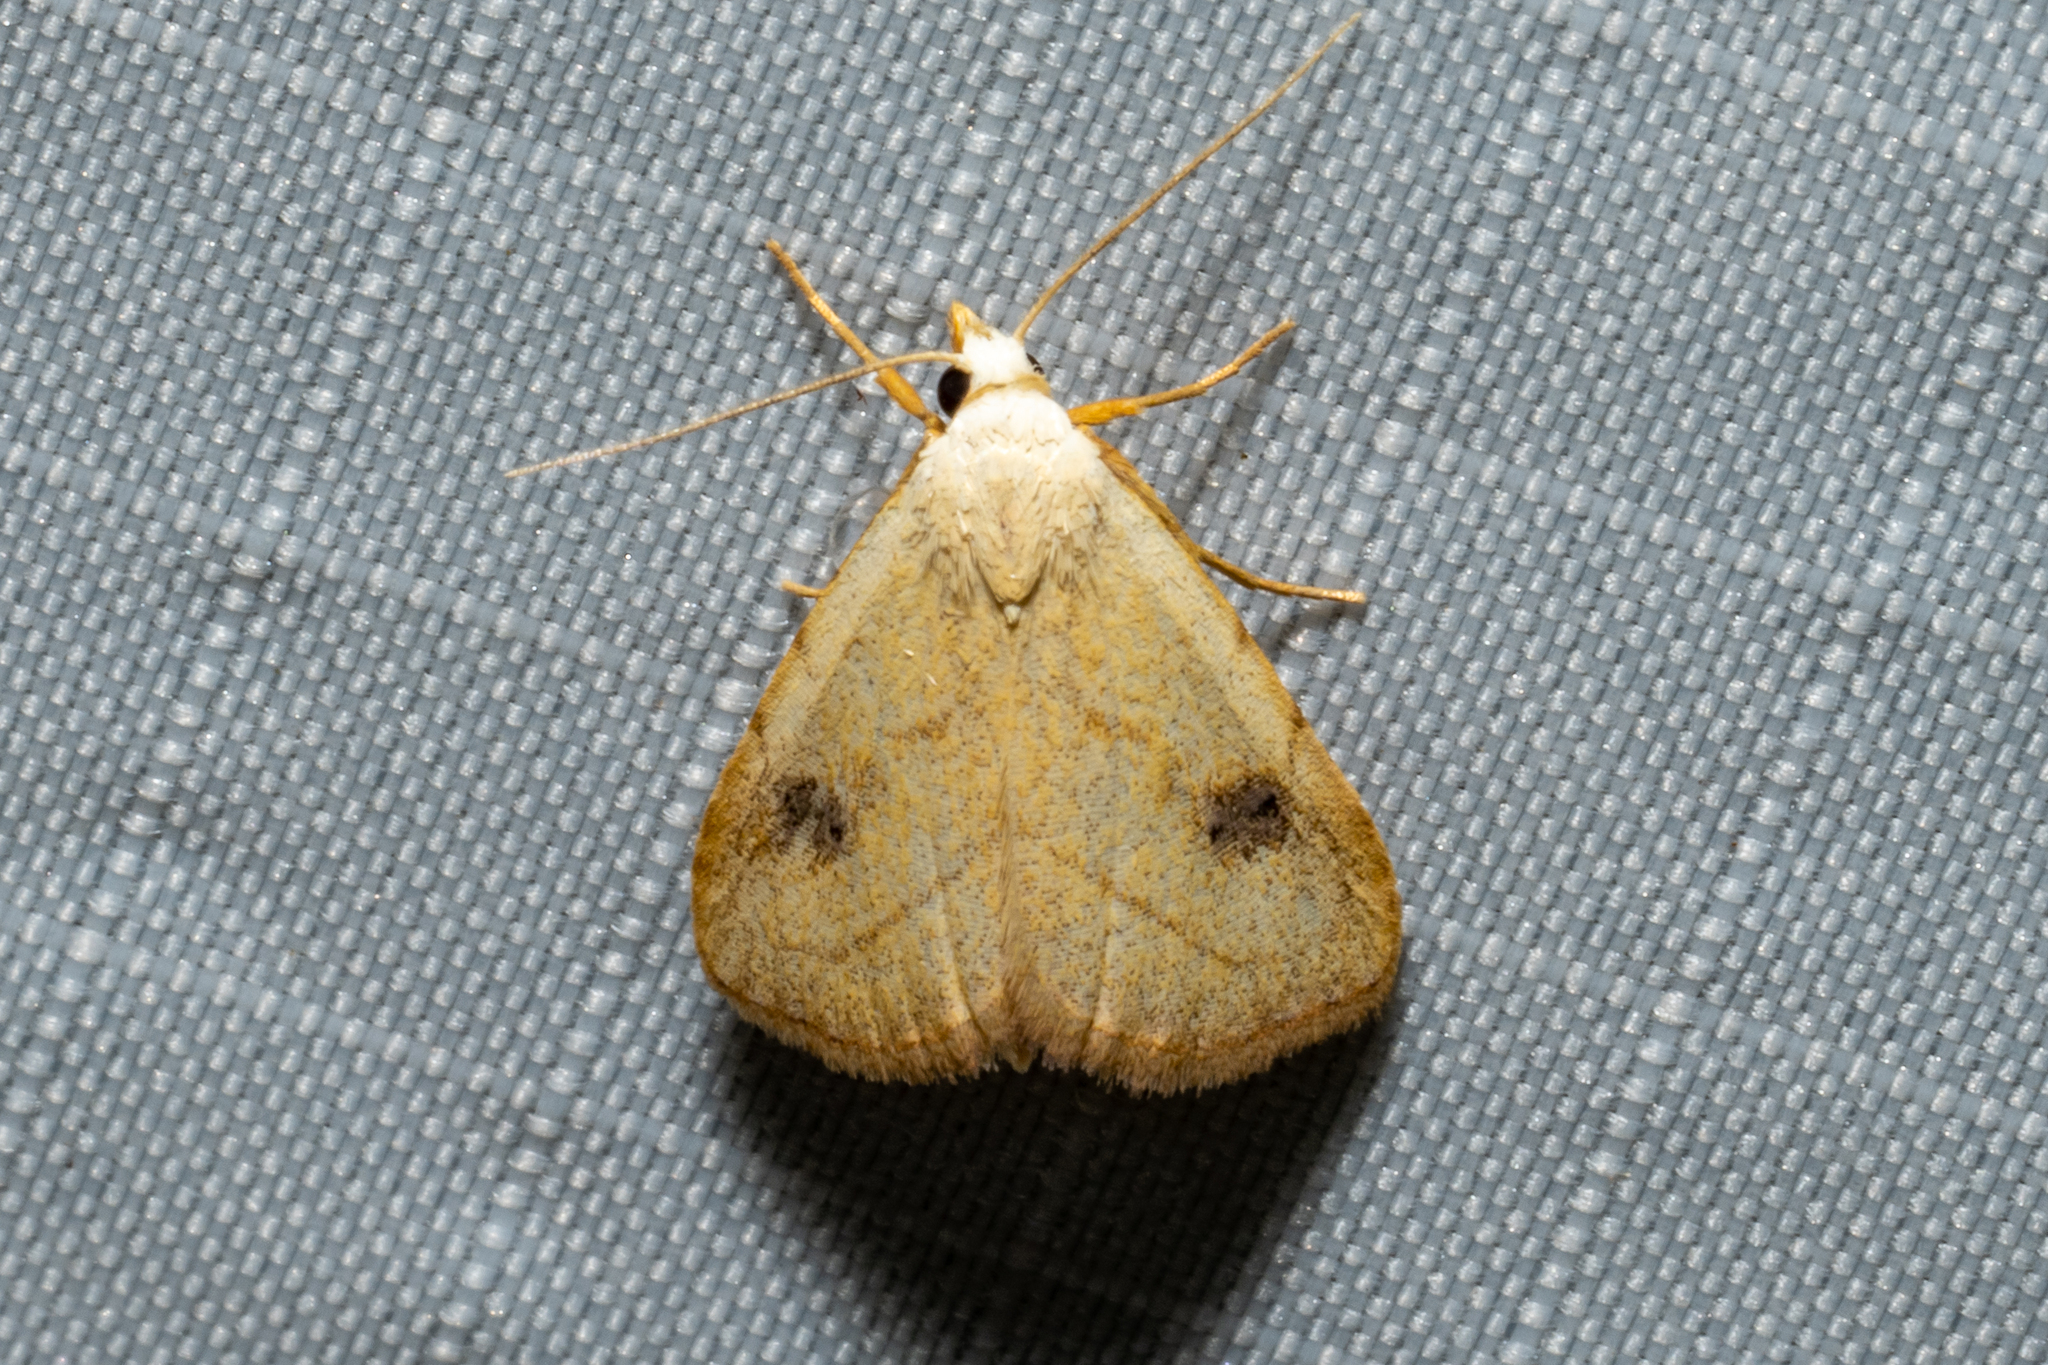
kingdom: Animalia
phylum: Arthropoda
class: Insecta
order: Lepidoptera
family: Erebidae
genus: Rivula
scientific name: Rivula propinqualis
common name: Spotted grass moth
